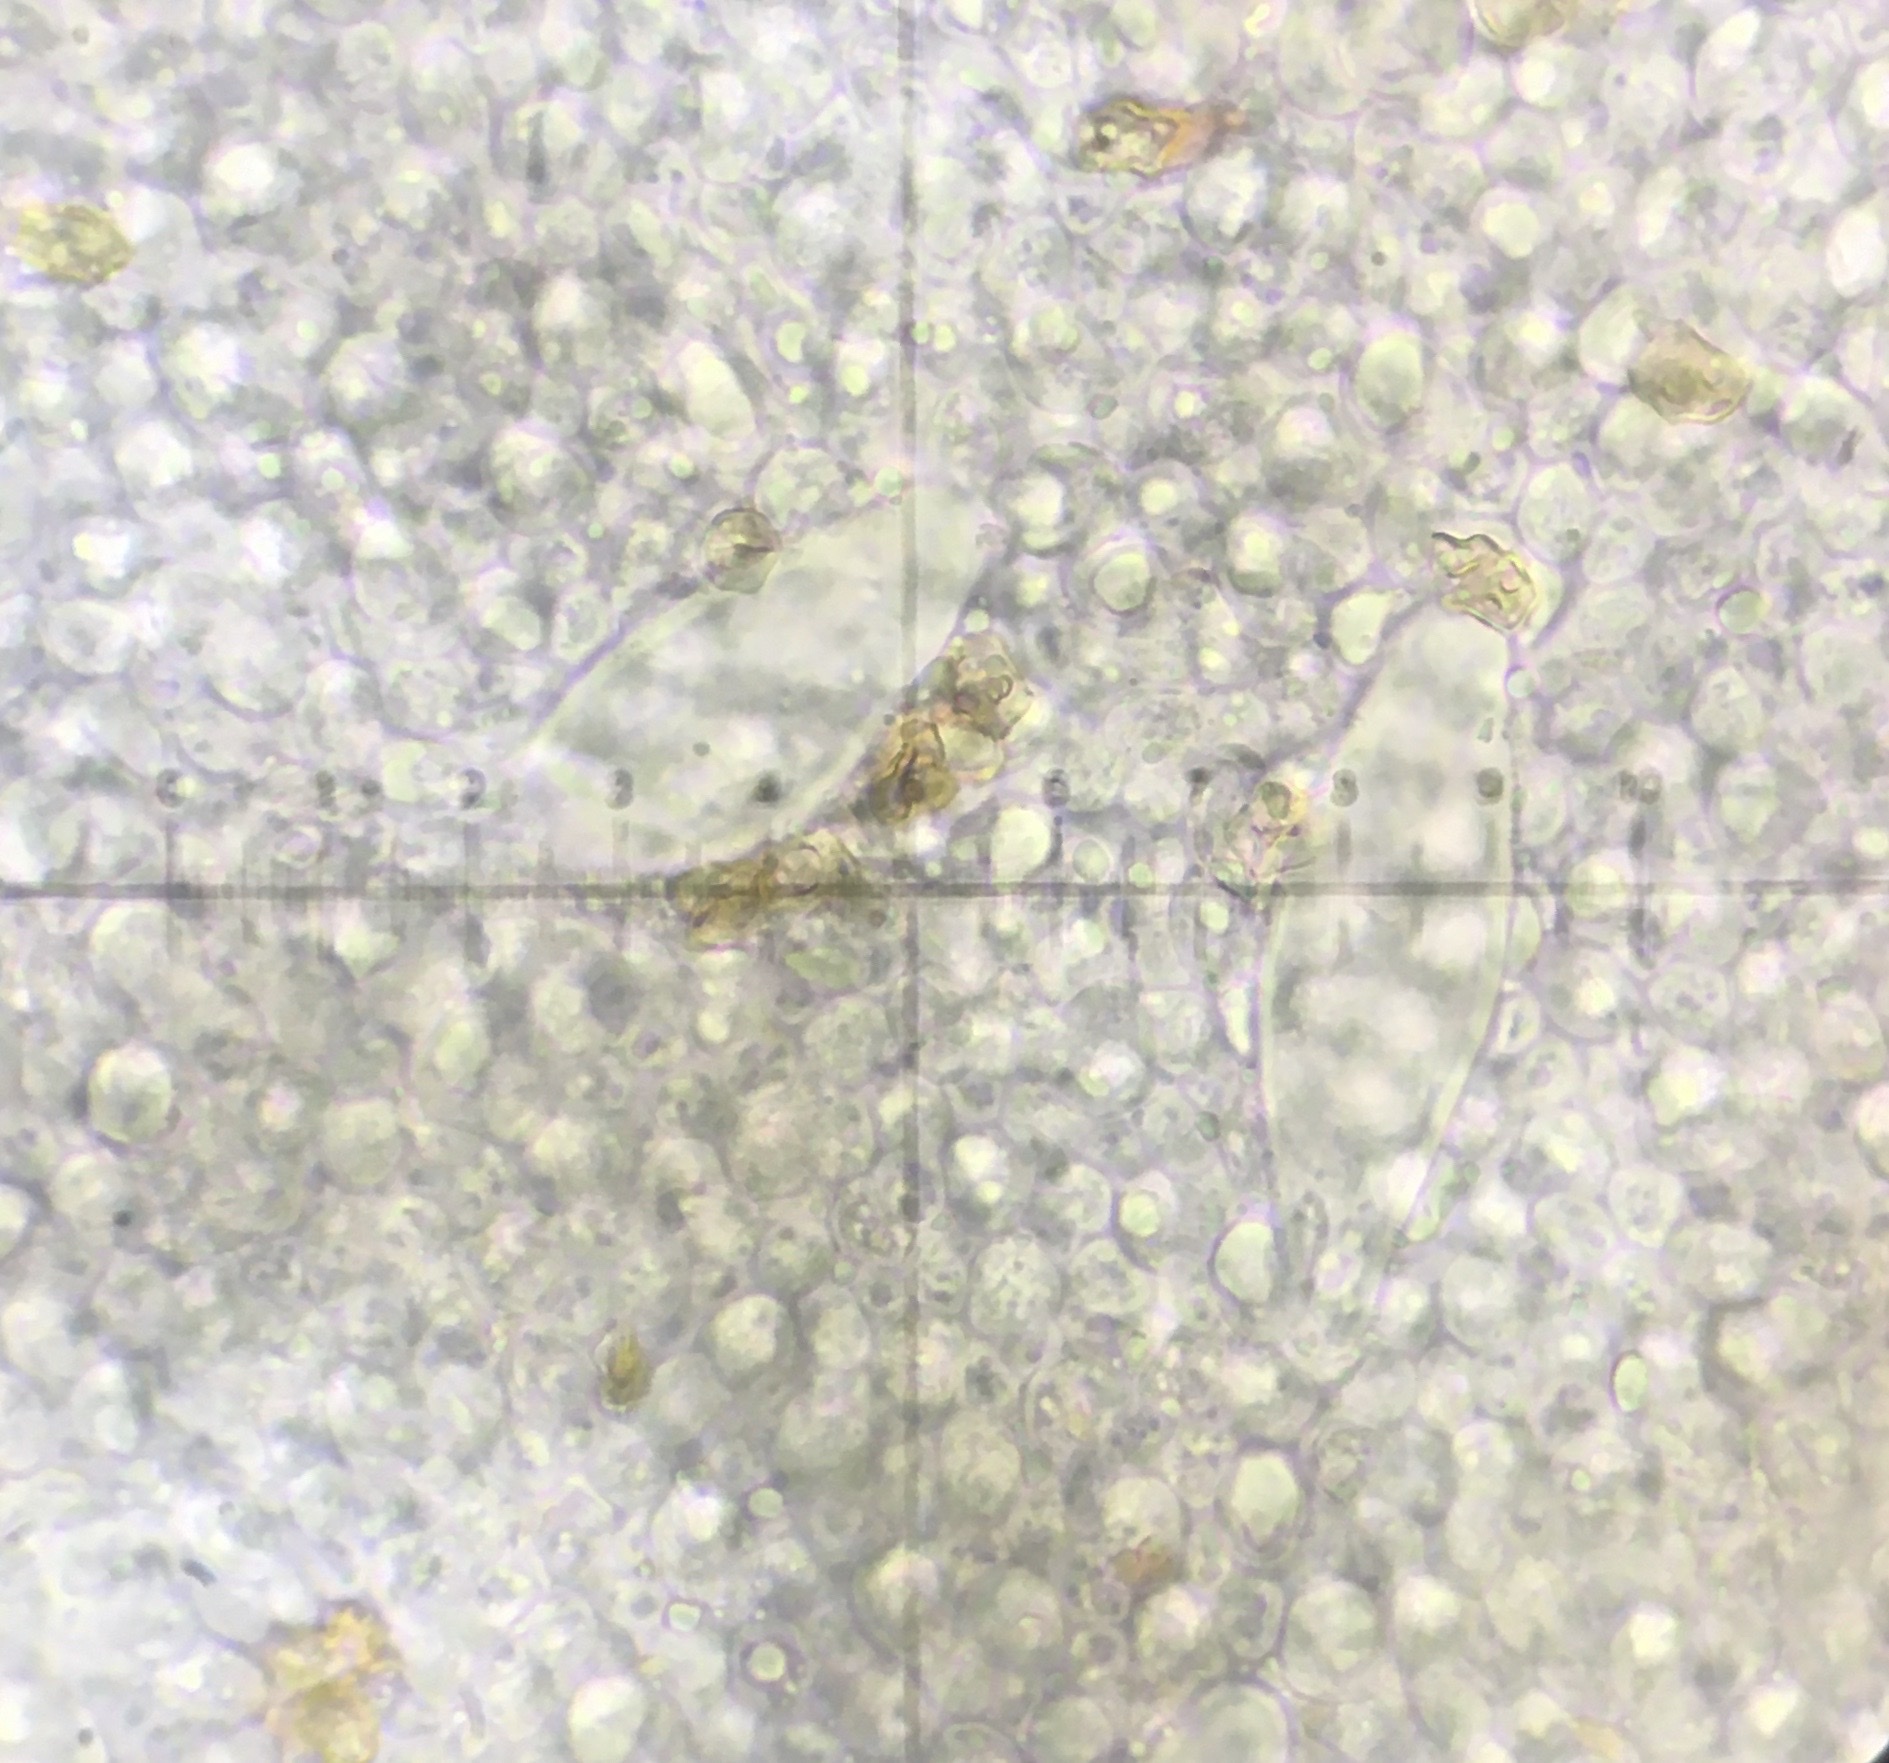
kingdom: Fungi
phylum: Basidiomycota
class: Agaricomycetes
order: Agaricales
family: Inocybaceae
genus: Inocybe
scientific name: Inocybe acriolens
